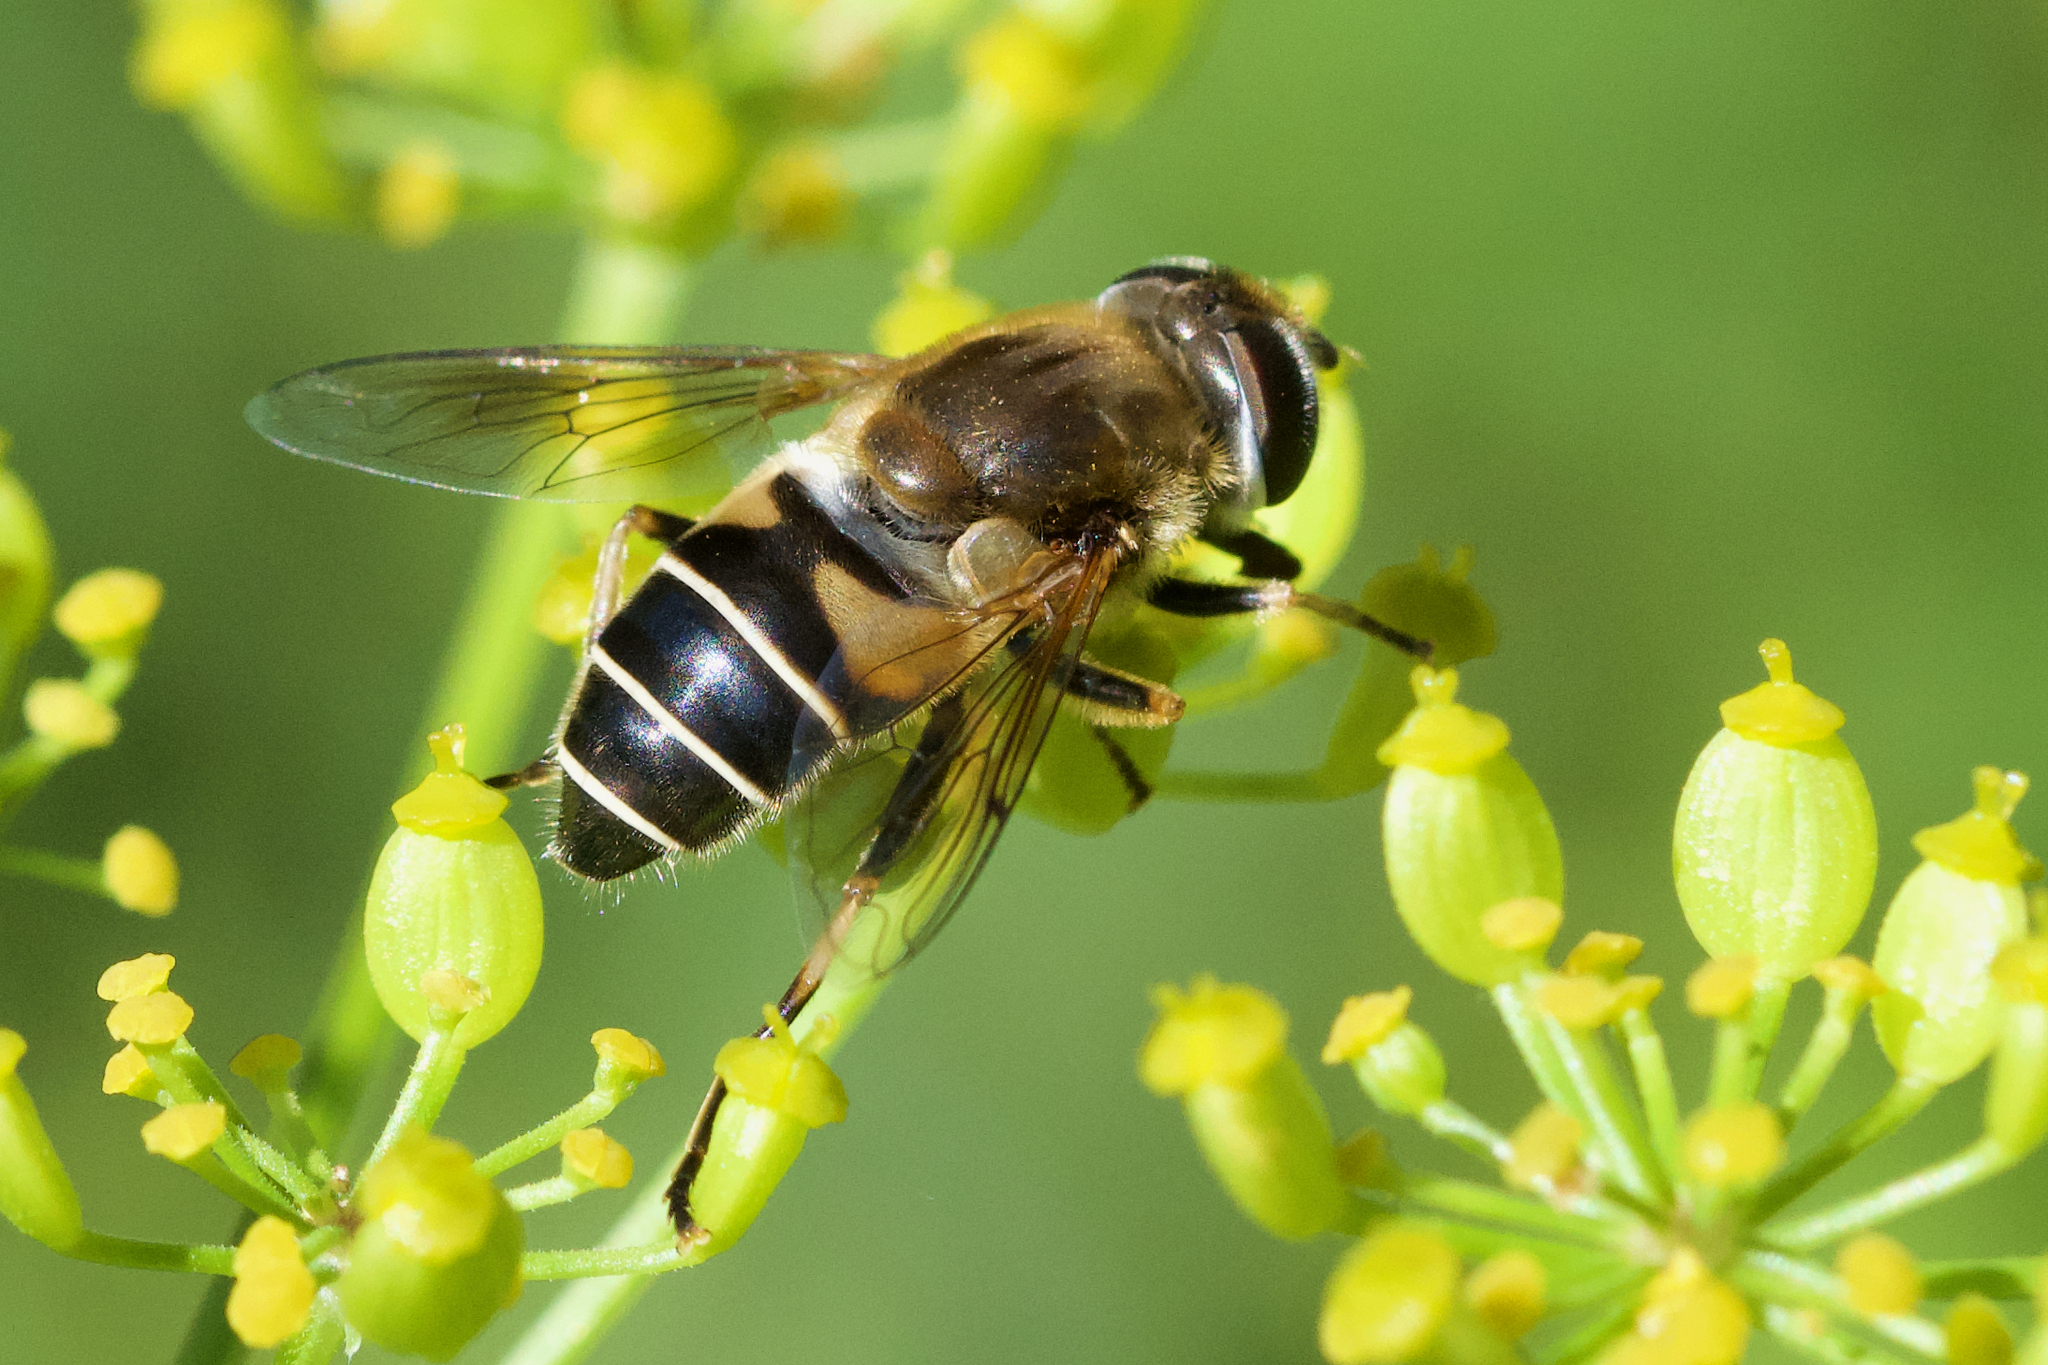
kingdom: Animalia
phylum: Arthropoda
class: Insecta
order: Diptera
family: Syrphidae
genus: Eristalis
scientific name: Eristalis nemorum
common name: Orange-spined drone fly
